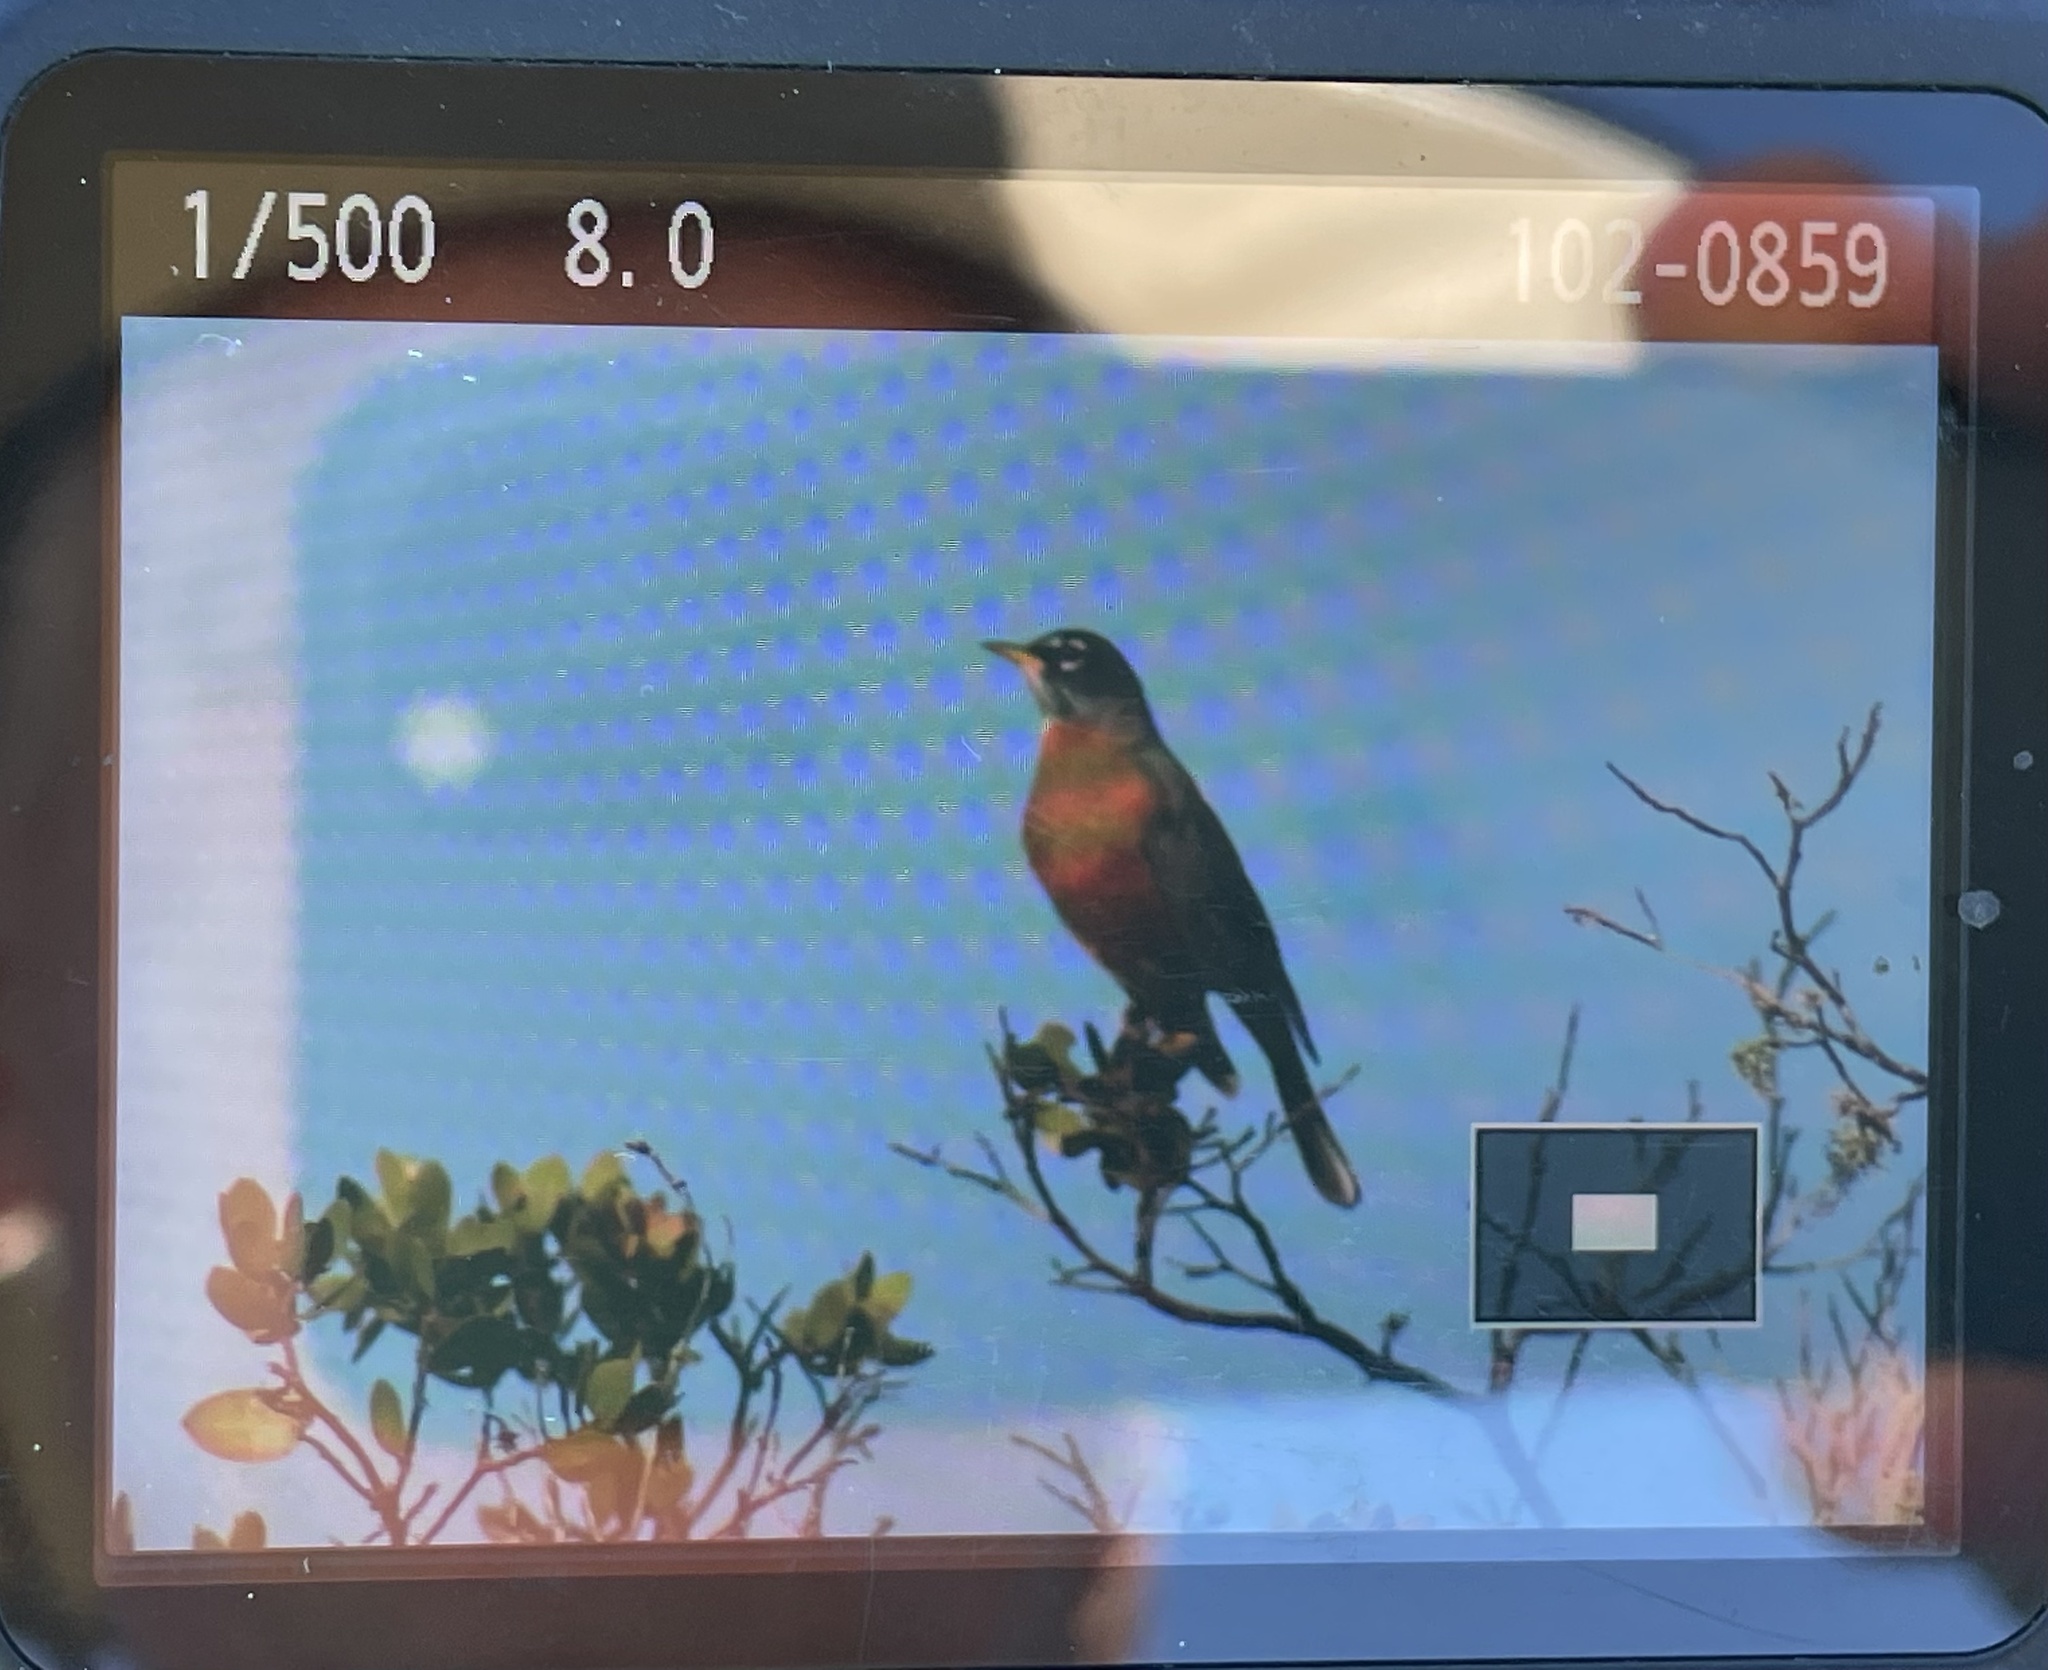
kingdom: Animalia
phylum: Chordata
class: Aves
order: Passeriformes
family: Turdidae
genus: Turdus
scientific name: Turdus migratorius
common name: American robin
